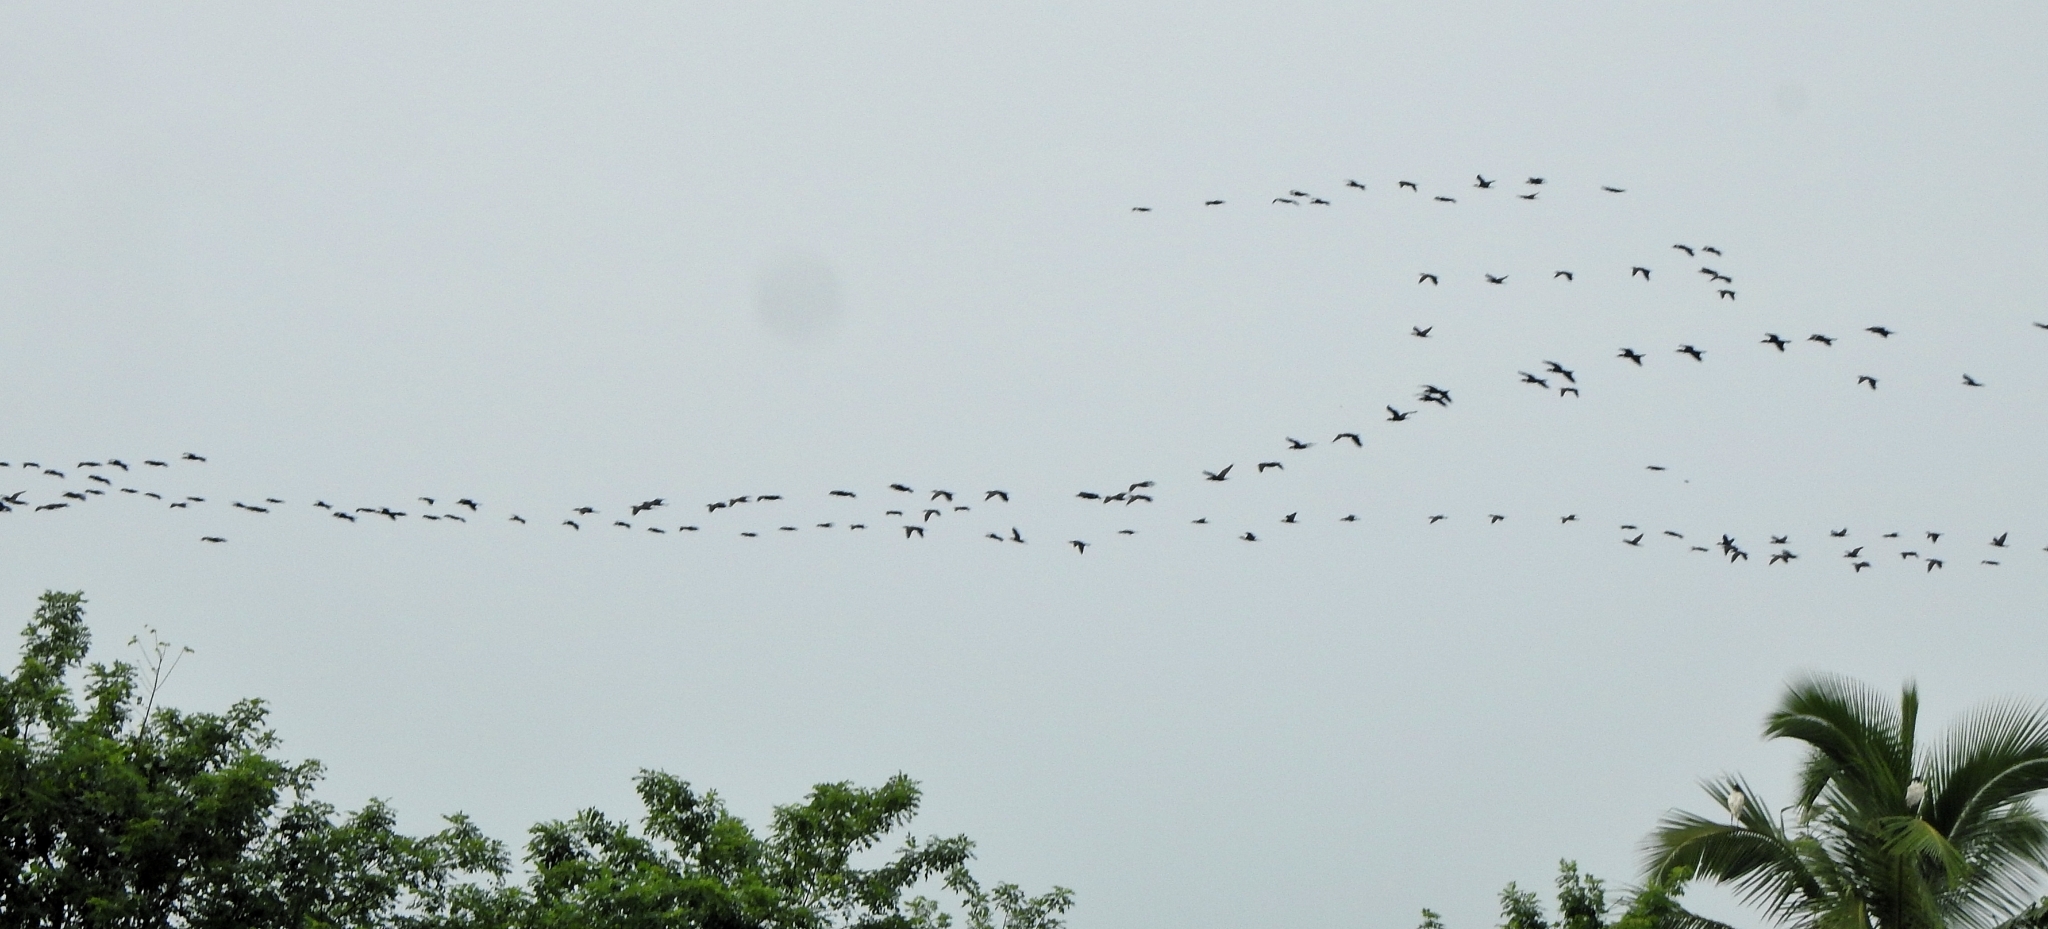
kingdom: Animalia
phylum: Chordata
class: Aves
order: Suliformes
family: Phalacrocoracidae
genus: Phalacrocorax
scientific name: Phalacrocorax fuscicollis
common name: Indian cormorant
